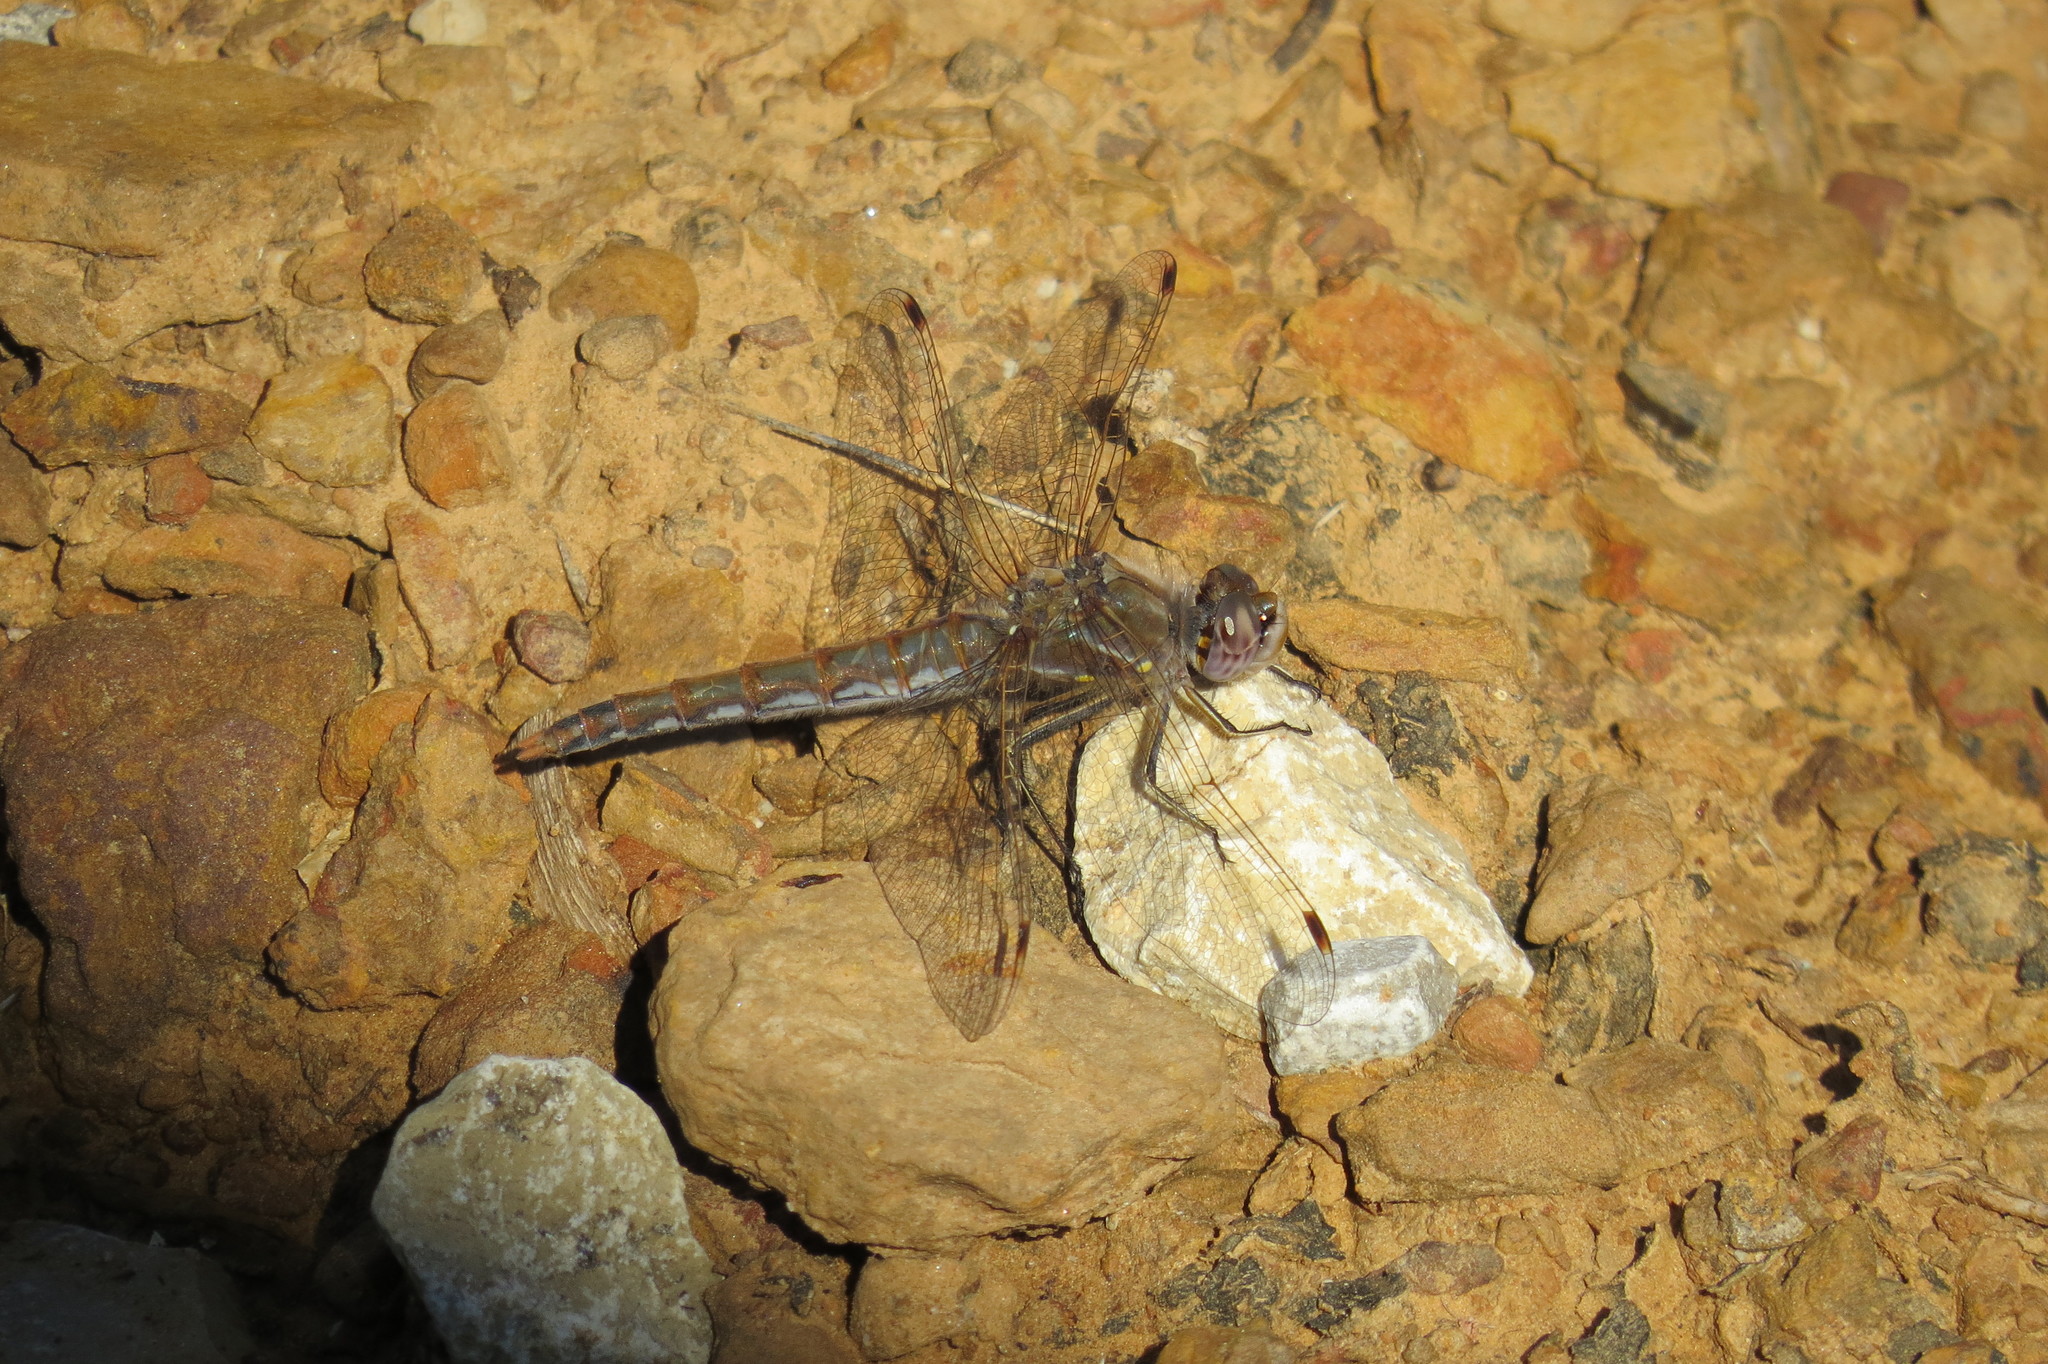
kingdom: Animalia
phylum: Arthropoda
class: Insecta
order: Odonata
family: Libellulidae
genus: Sympetrum
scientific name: Sympetrum corruptum
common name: Variegated meadowhawk
